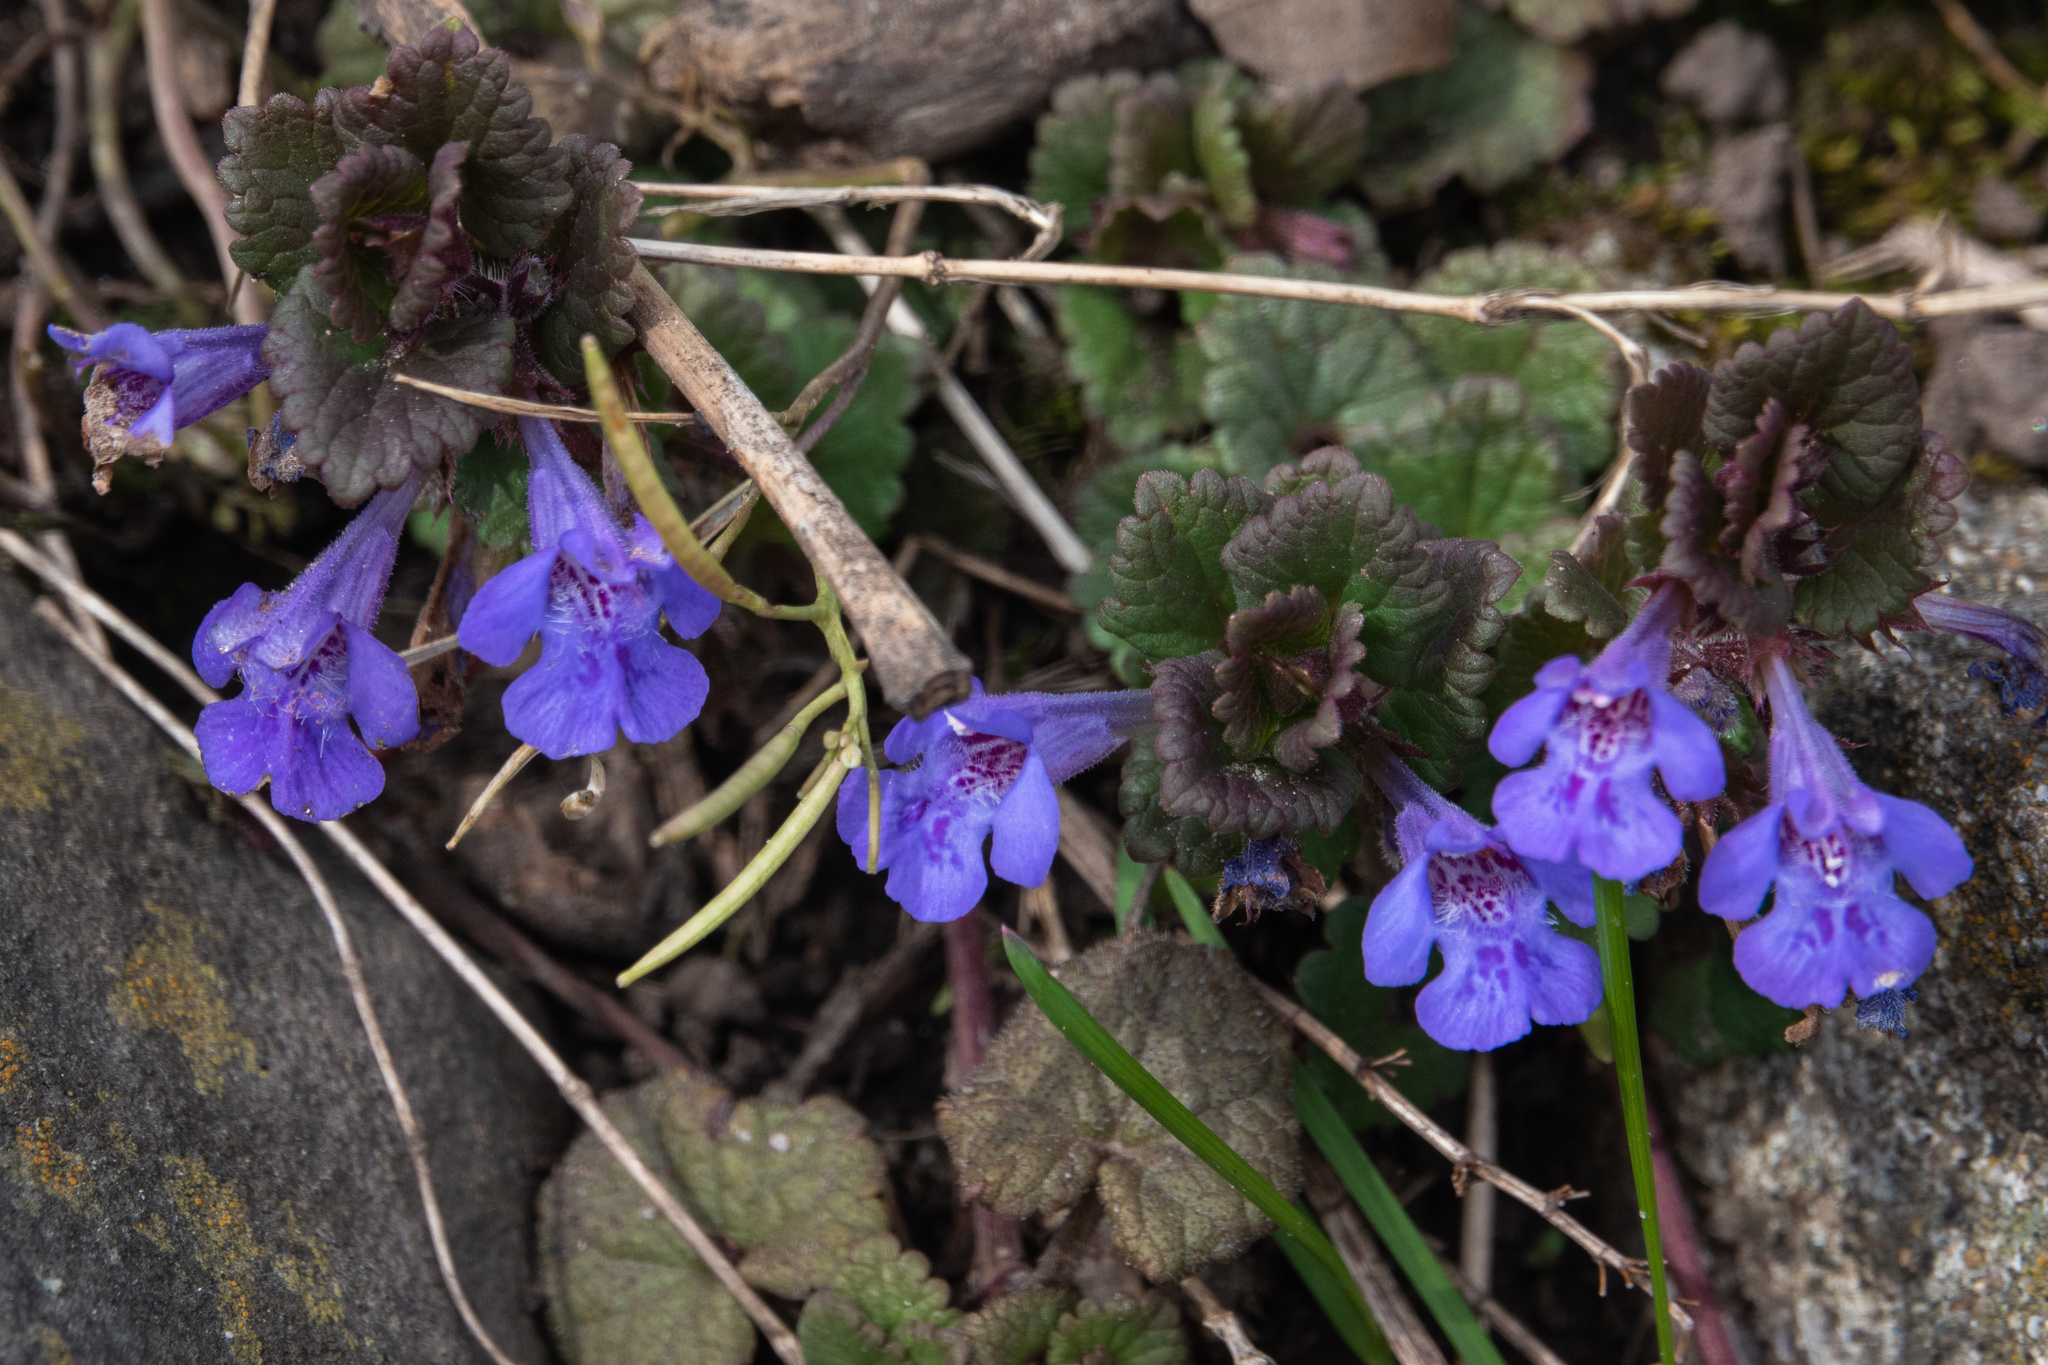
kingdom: Plantae
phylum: Tracheophyta
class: Magnoliopsida
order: Lamiales
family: Lamiaceae
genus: Glechoma
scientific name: Glechoma hederacea
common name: Ground ivy
